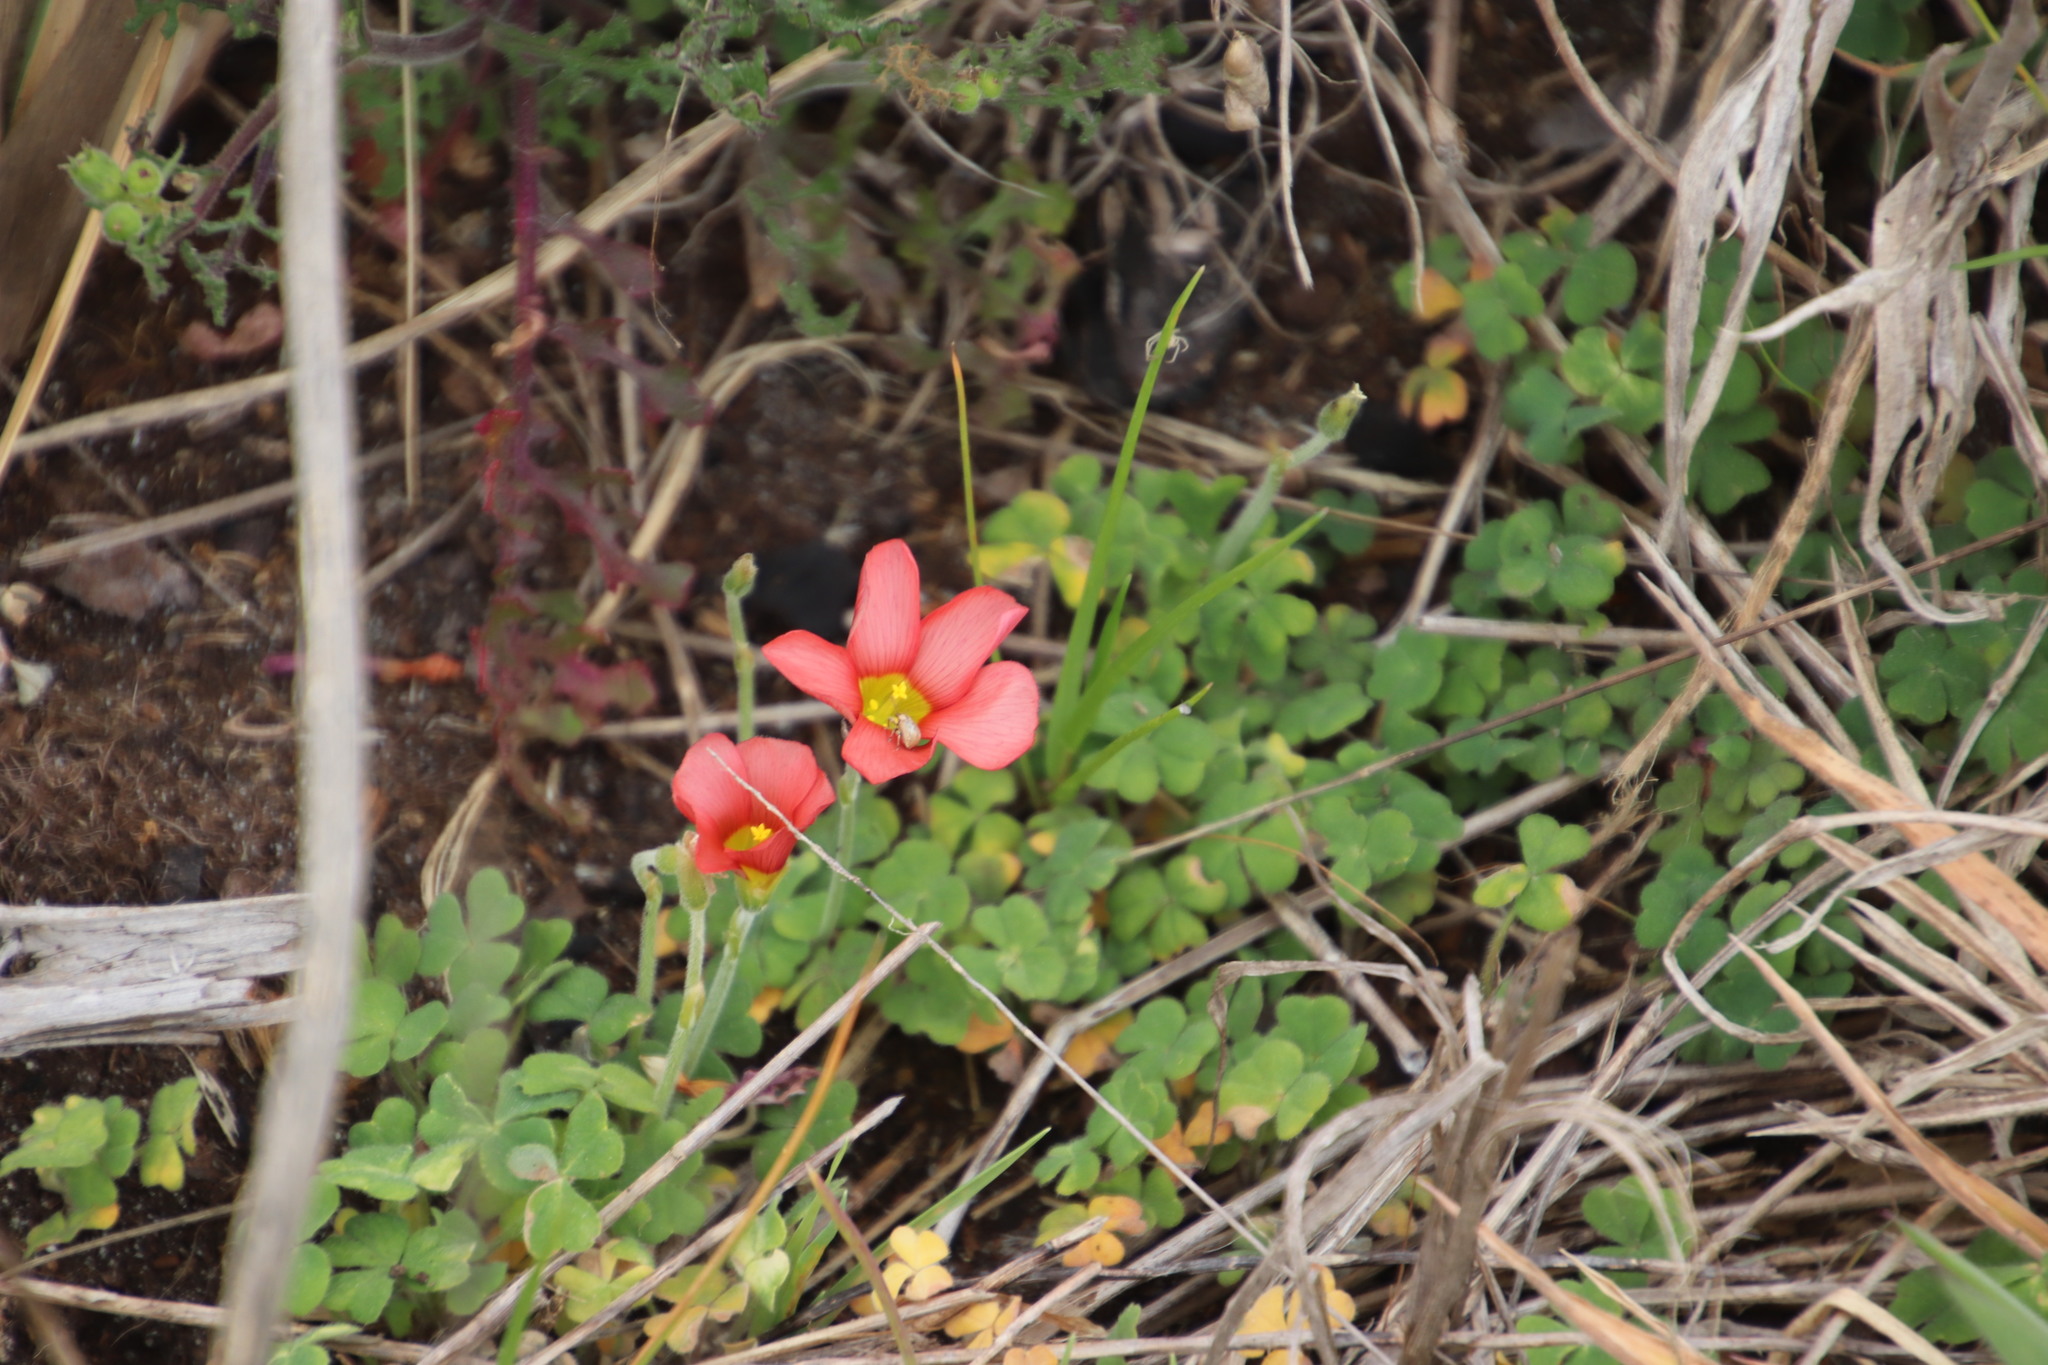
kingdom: Plantae
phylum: Tracheophyta
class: Magnoliopsida
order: Oxalidales
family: Oxalidaceae
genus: Oxalis
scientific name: Oxalis obtusa
